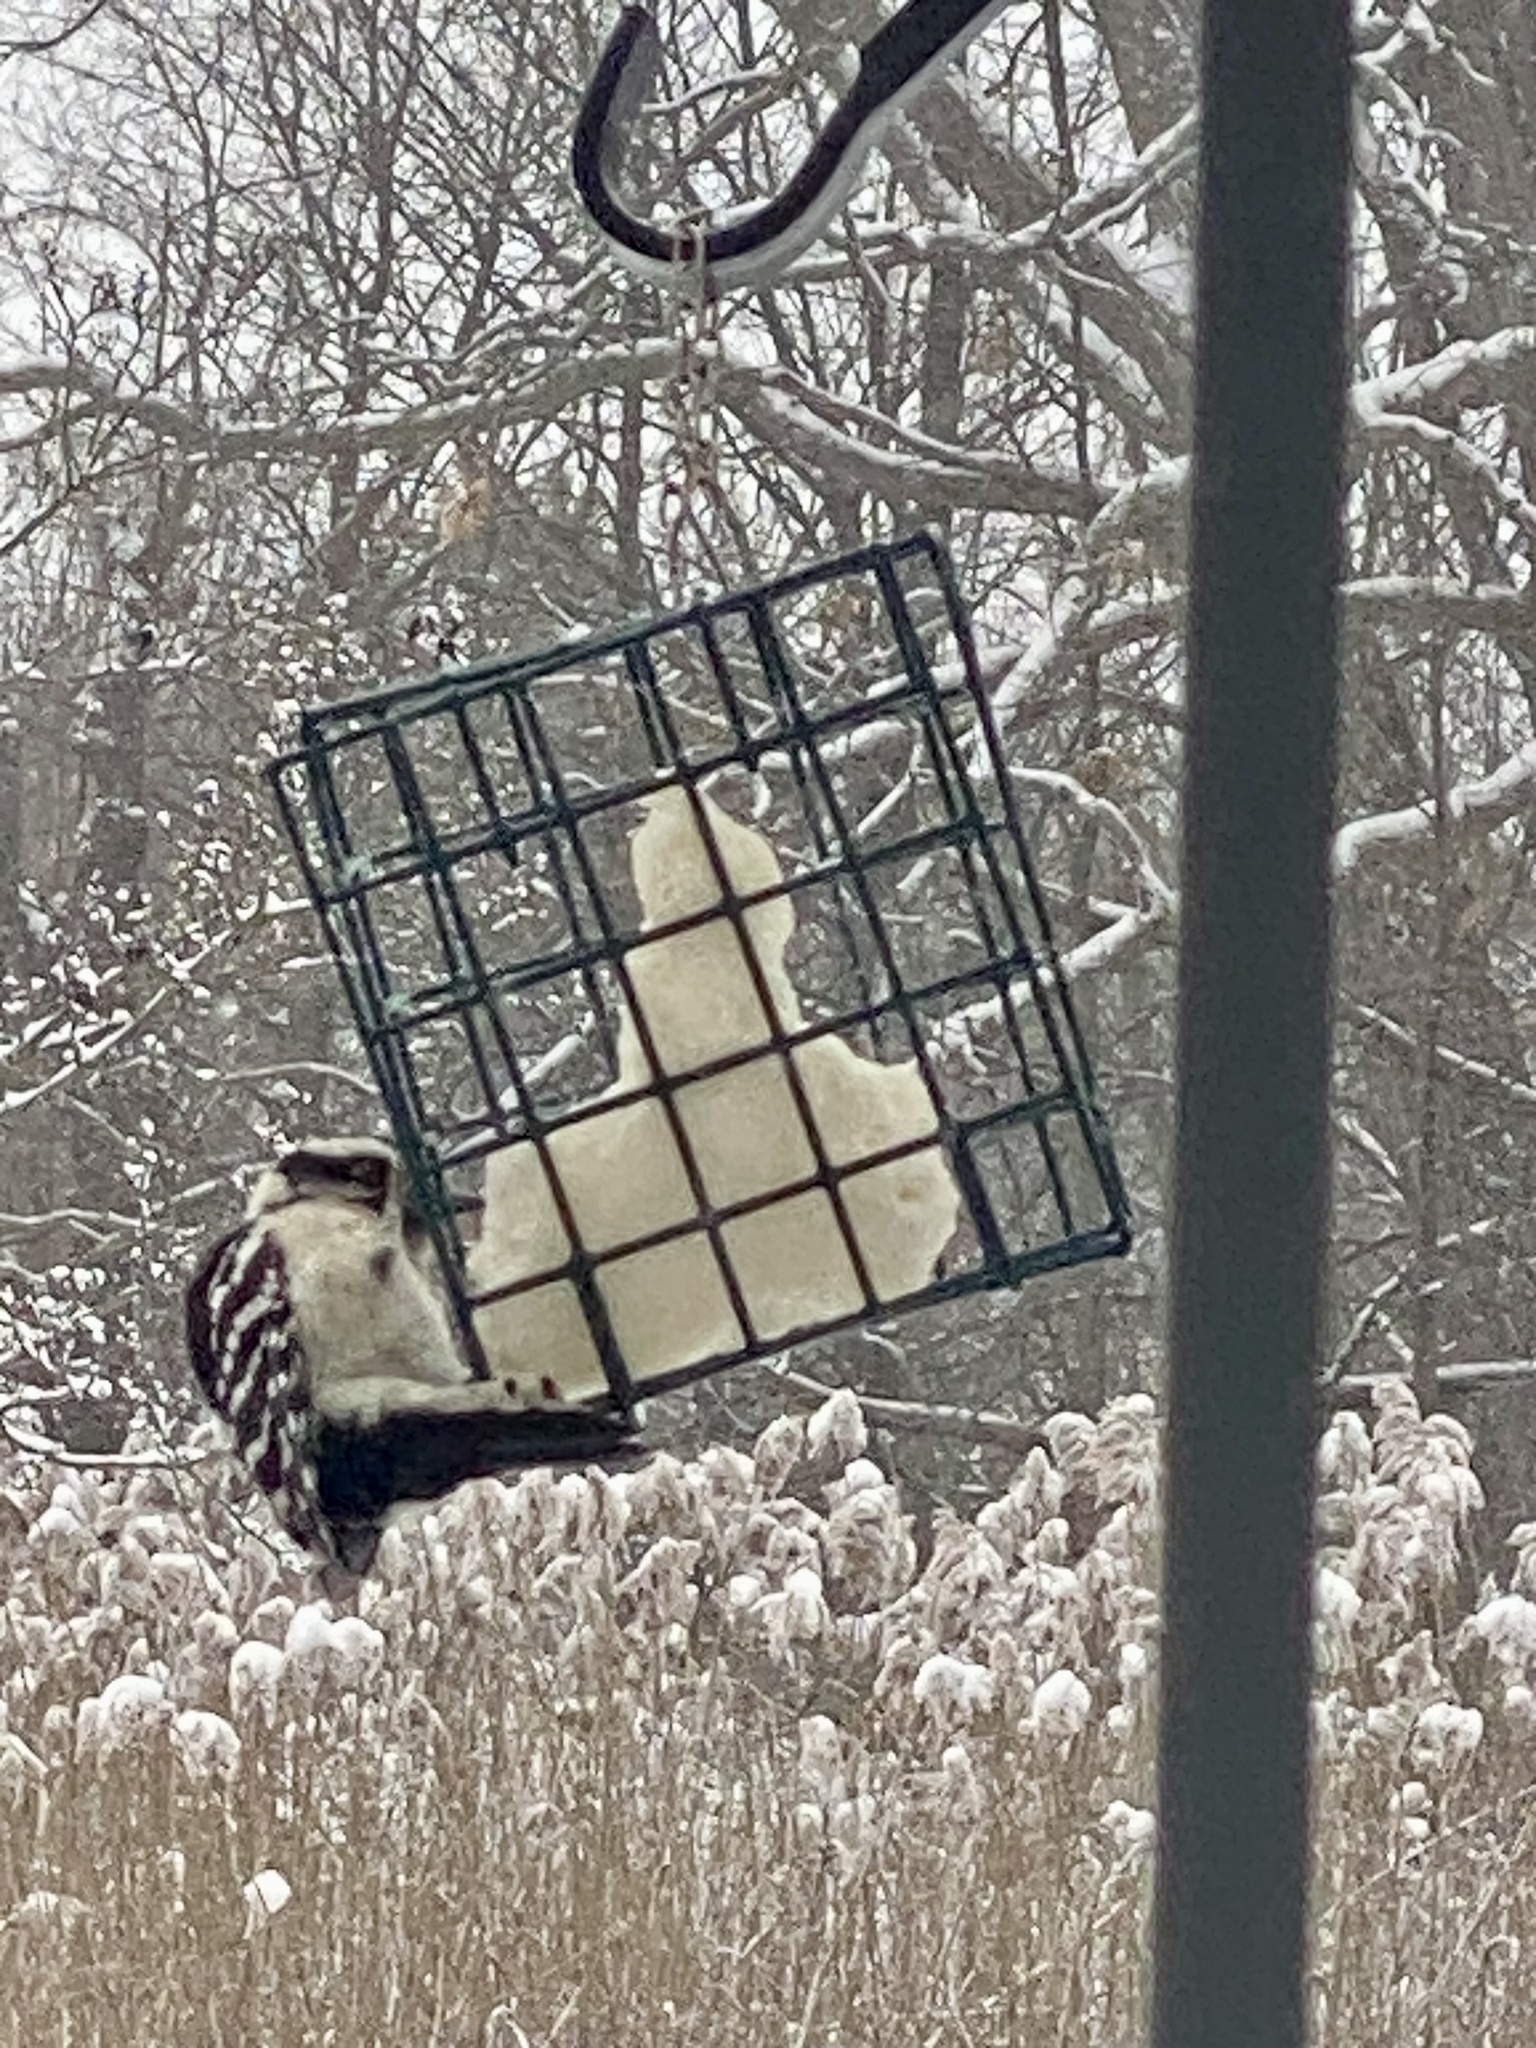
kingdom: Animalia
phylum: Chordata
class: Aves
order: Piciformes
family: Picidae
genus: Dryobates
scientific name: Dryobates pubescens
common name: Downy woodpecker
